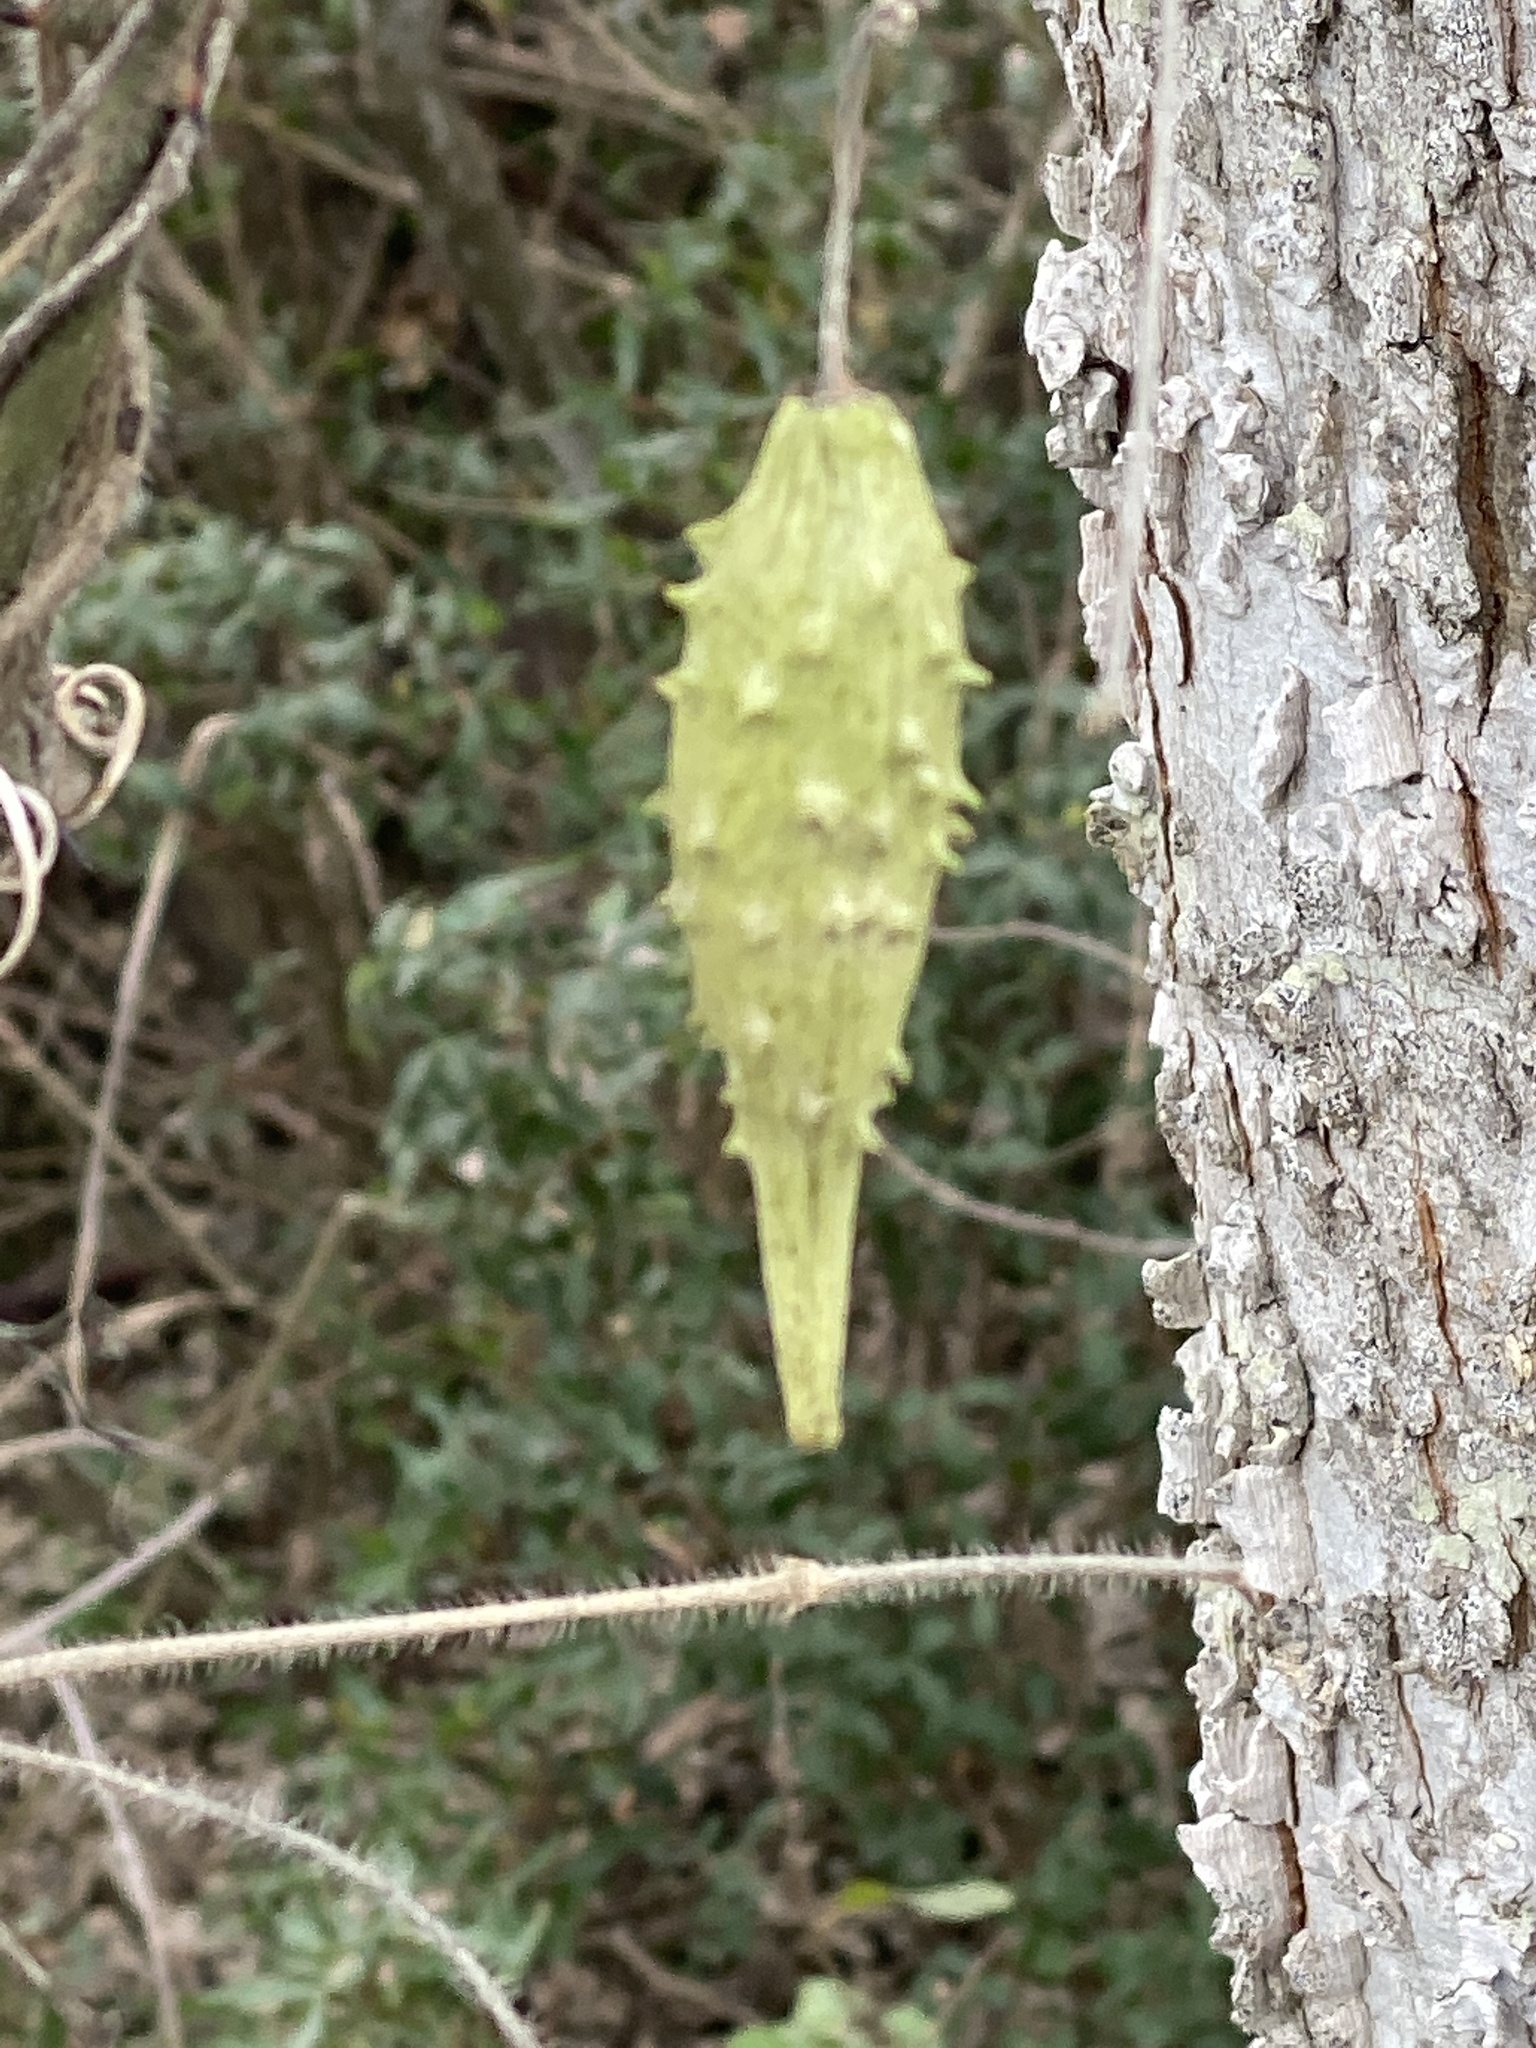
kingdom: Plantae
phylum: Tracheophyta
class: Magnoliopsida
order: Gentianales
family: Apocynaceae
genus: Dictyanthus
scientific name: Dictyanthus reticulatus
